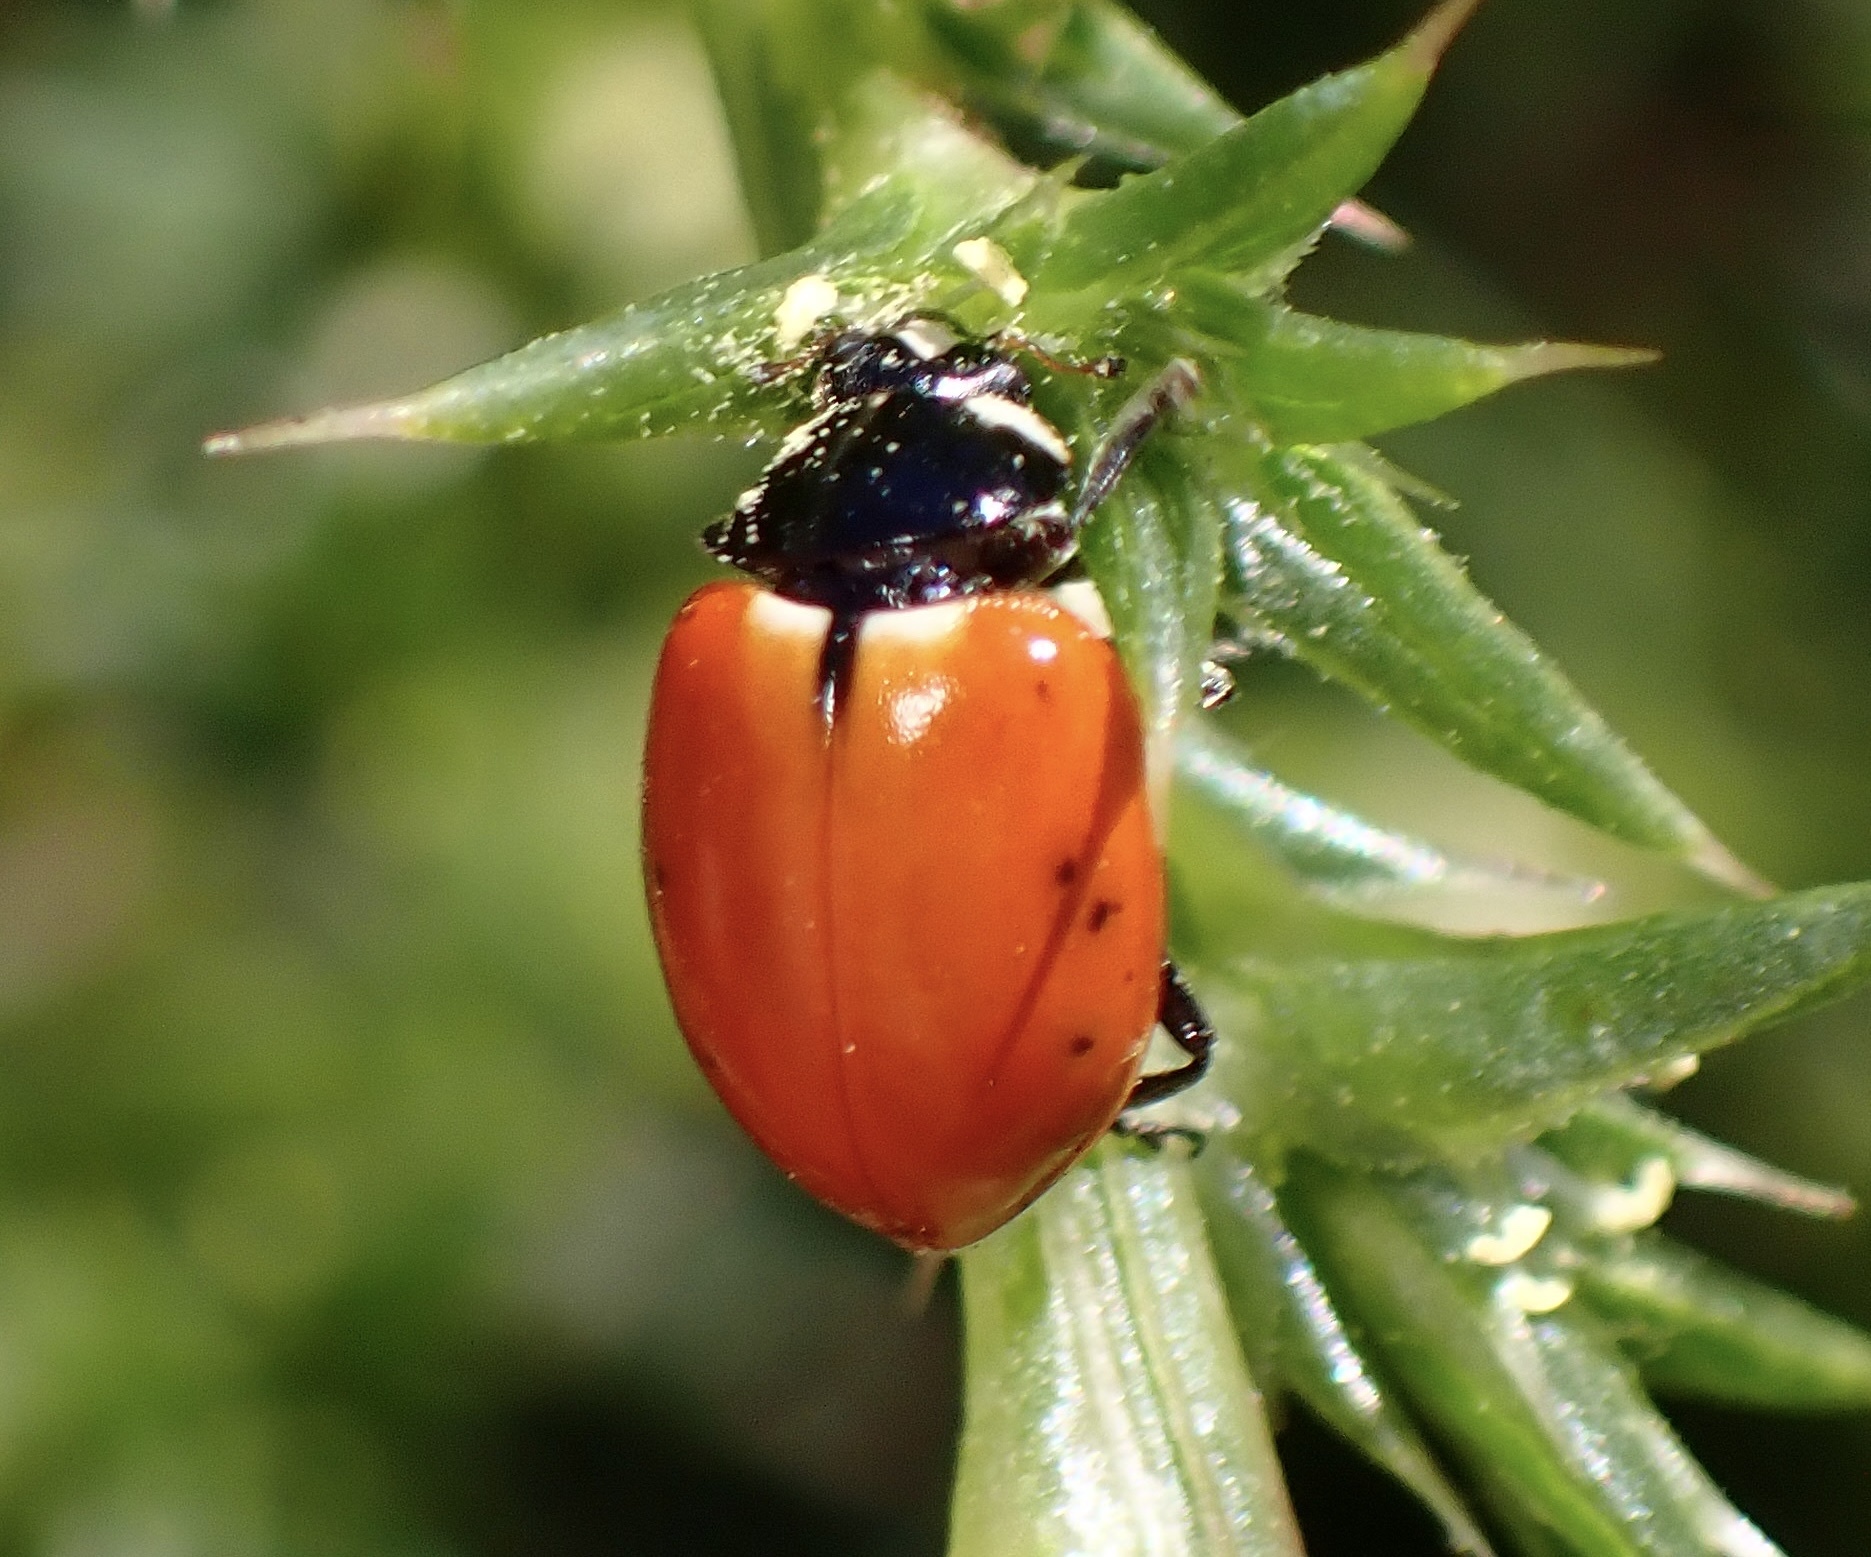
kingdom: Animalia
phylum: Arthropoda
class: Insecta
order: Coleoptera
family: Coccinellidae
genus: Hippodamia
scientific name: Hippodamia quinquesignata
